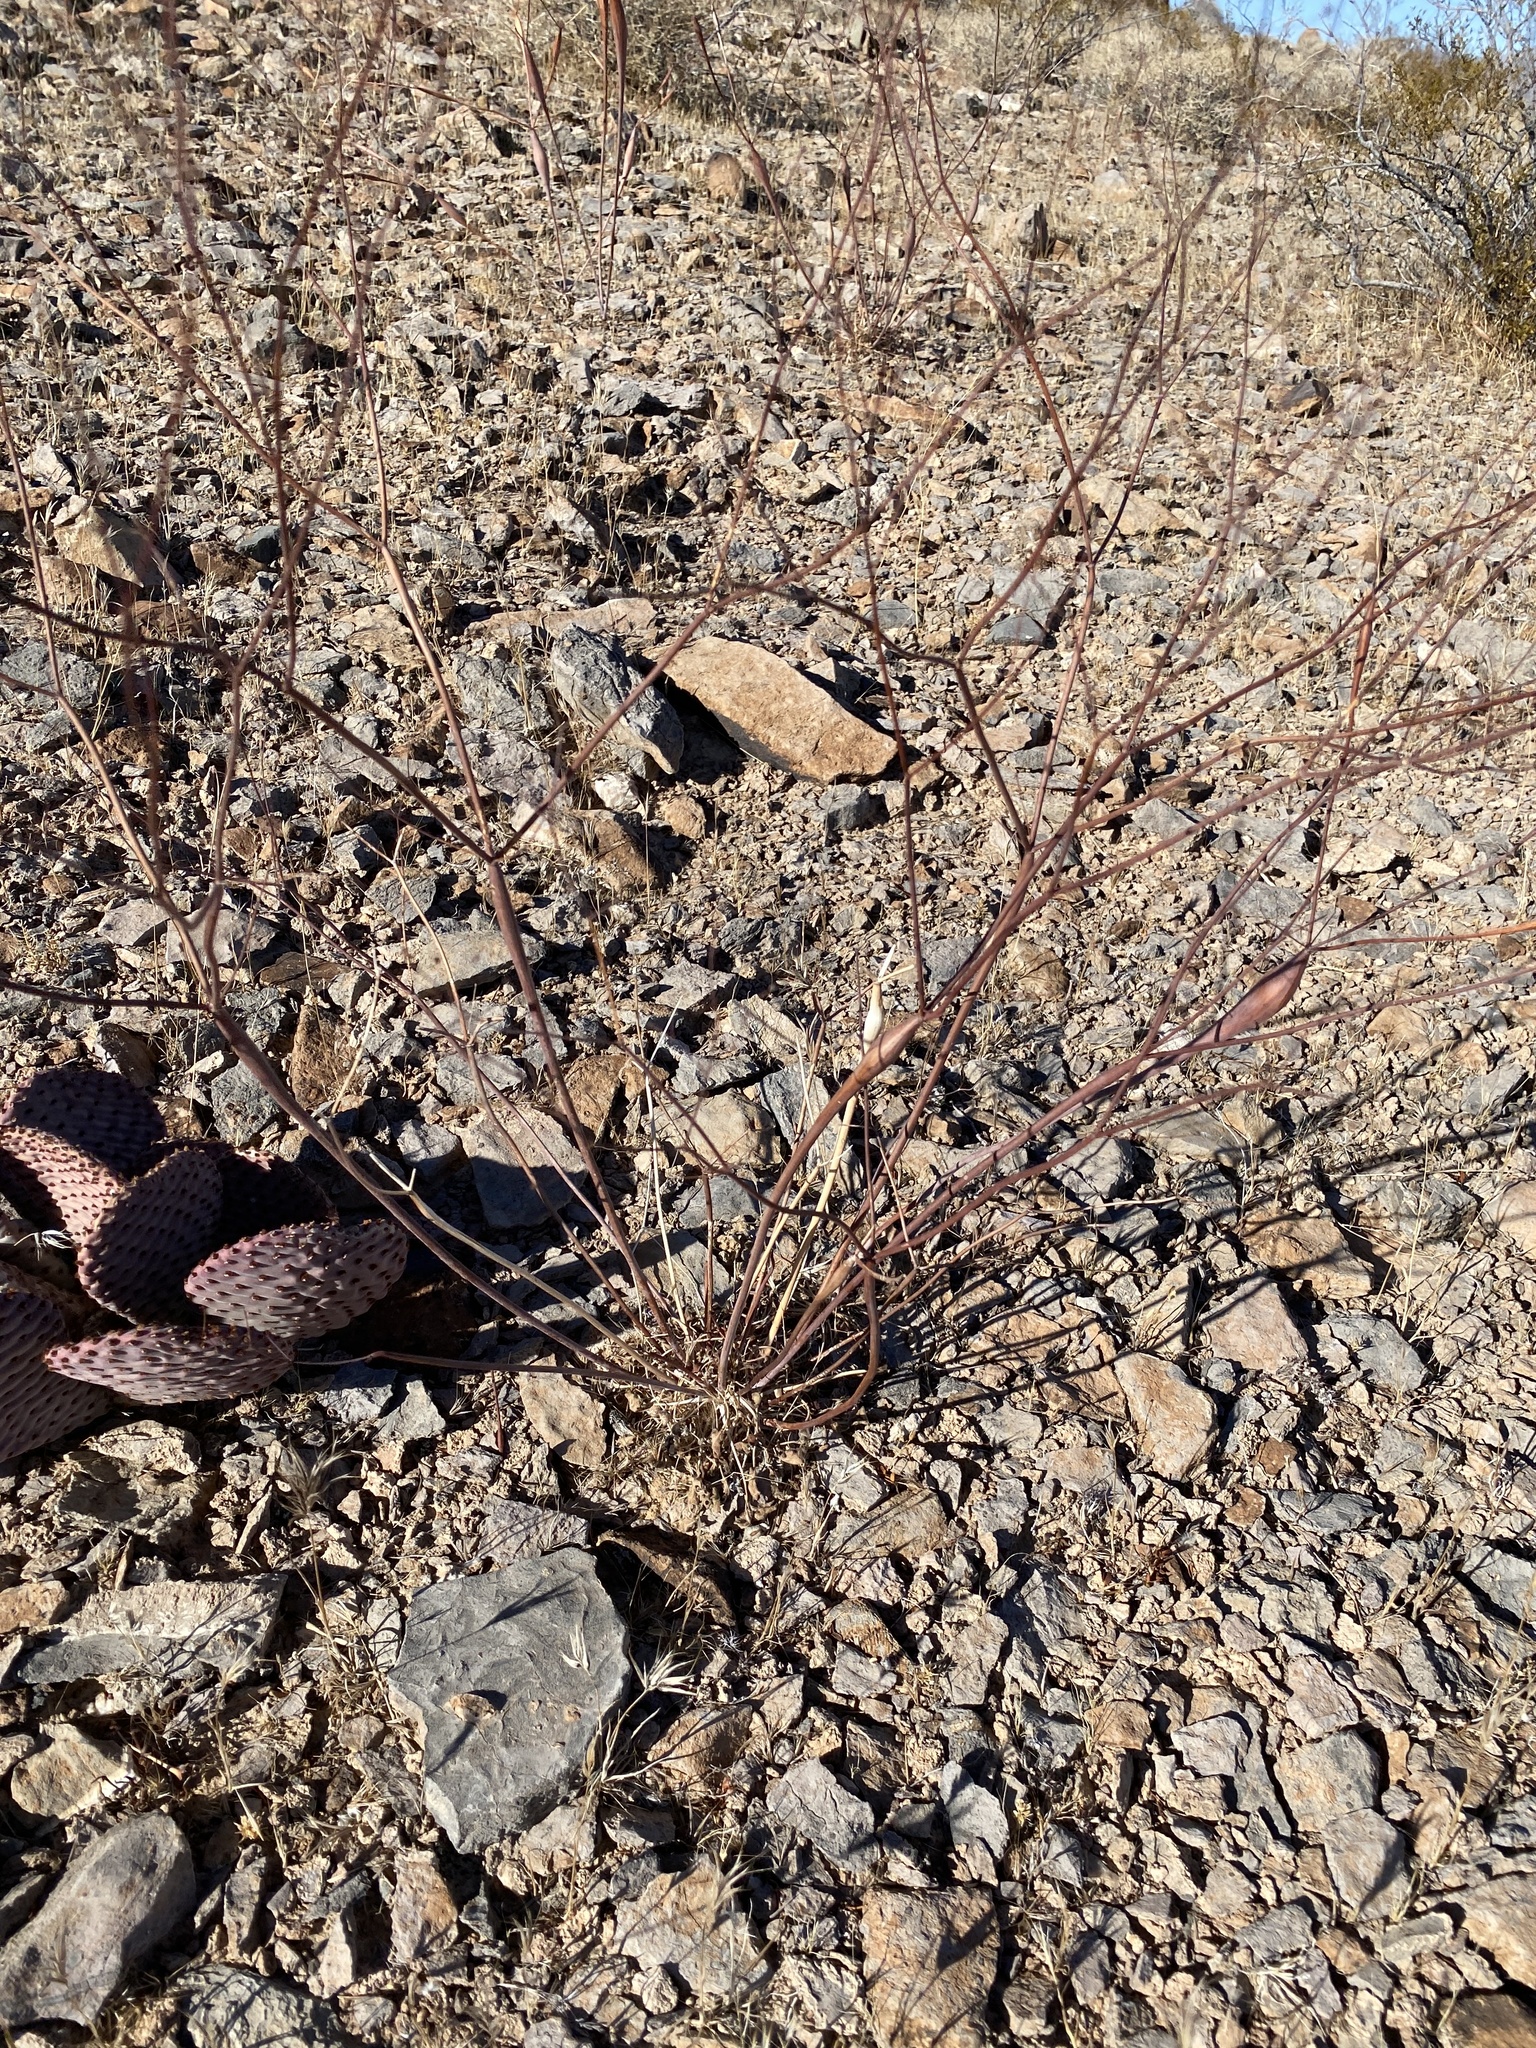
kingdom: Plantae
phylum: Tracheophyta
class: Magnoliopsida
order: Caryophyllales
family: Polygonaceae
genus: Eriogonum
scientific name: Eriogonum inflatum
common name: Desert trumpet
